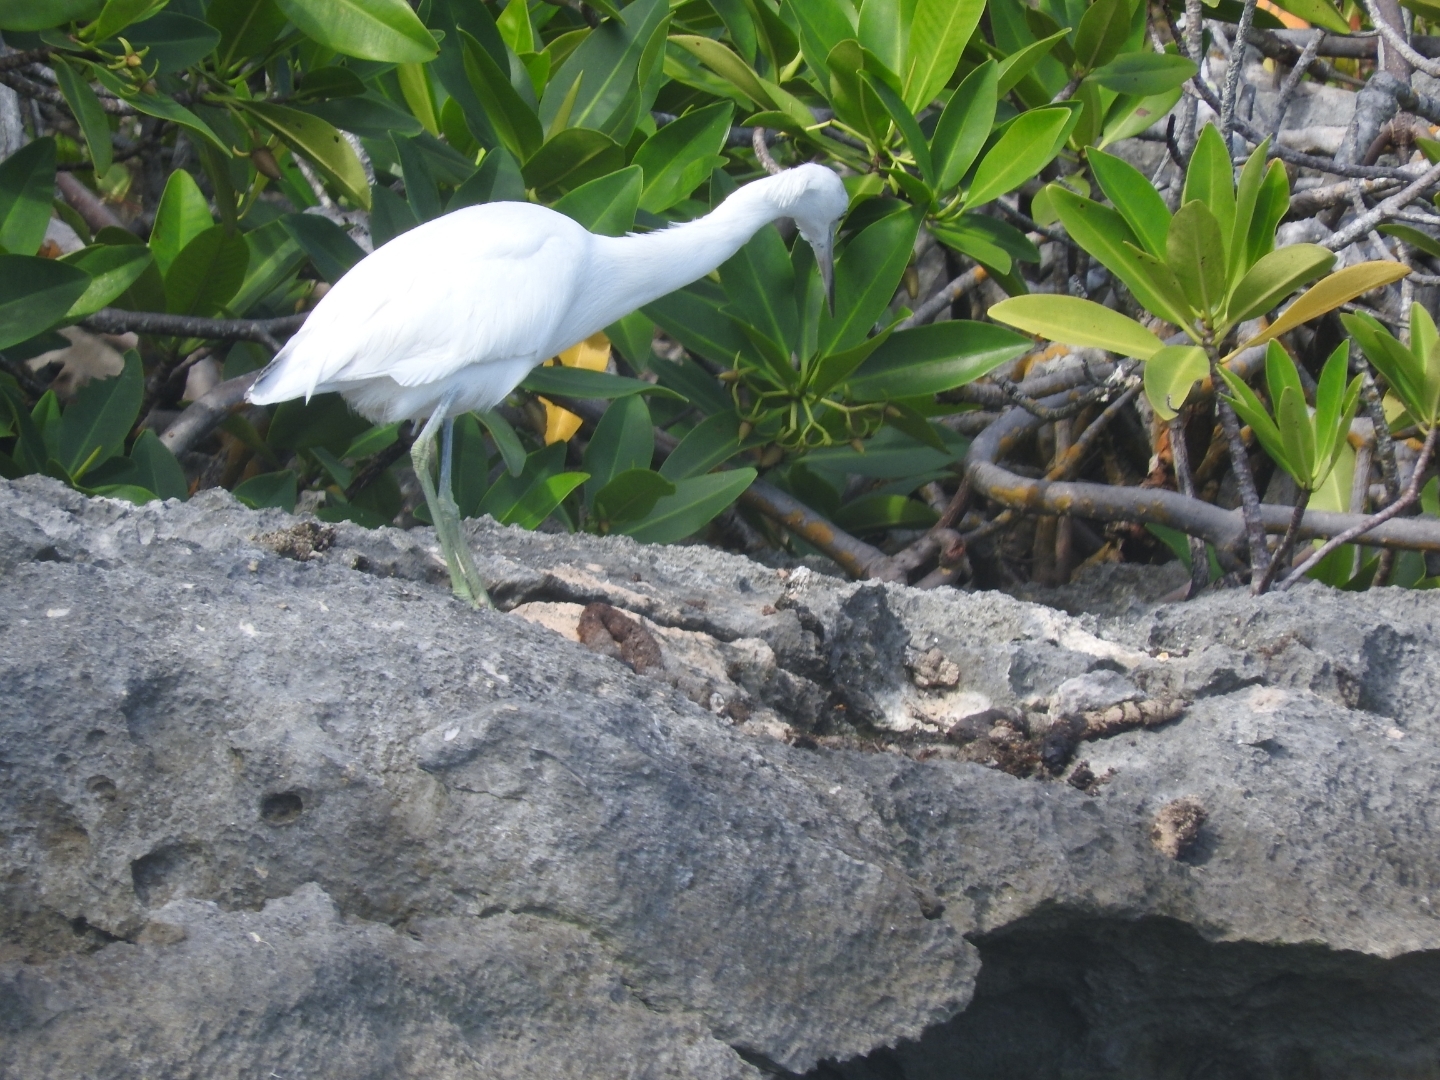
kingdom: Animalia
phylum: Chordata
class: Aves
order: Pelecaniformes
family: Ardeidae
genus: Egretta
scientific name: Egretta caerulea
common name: Little blue heron
